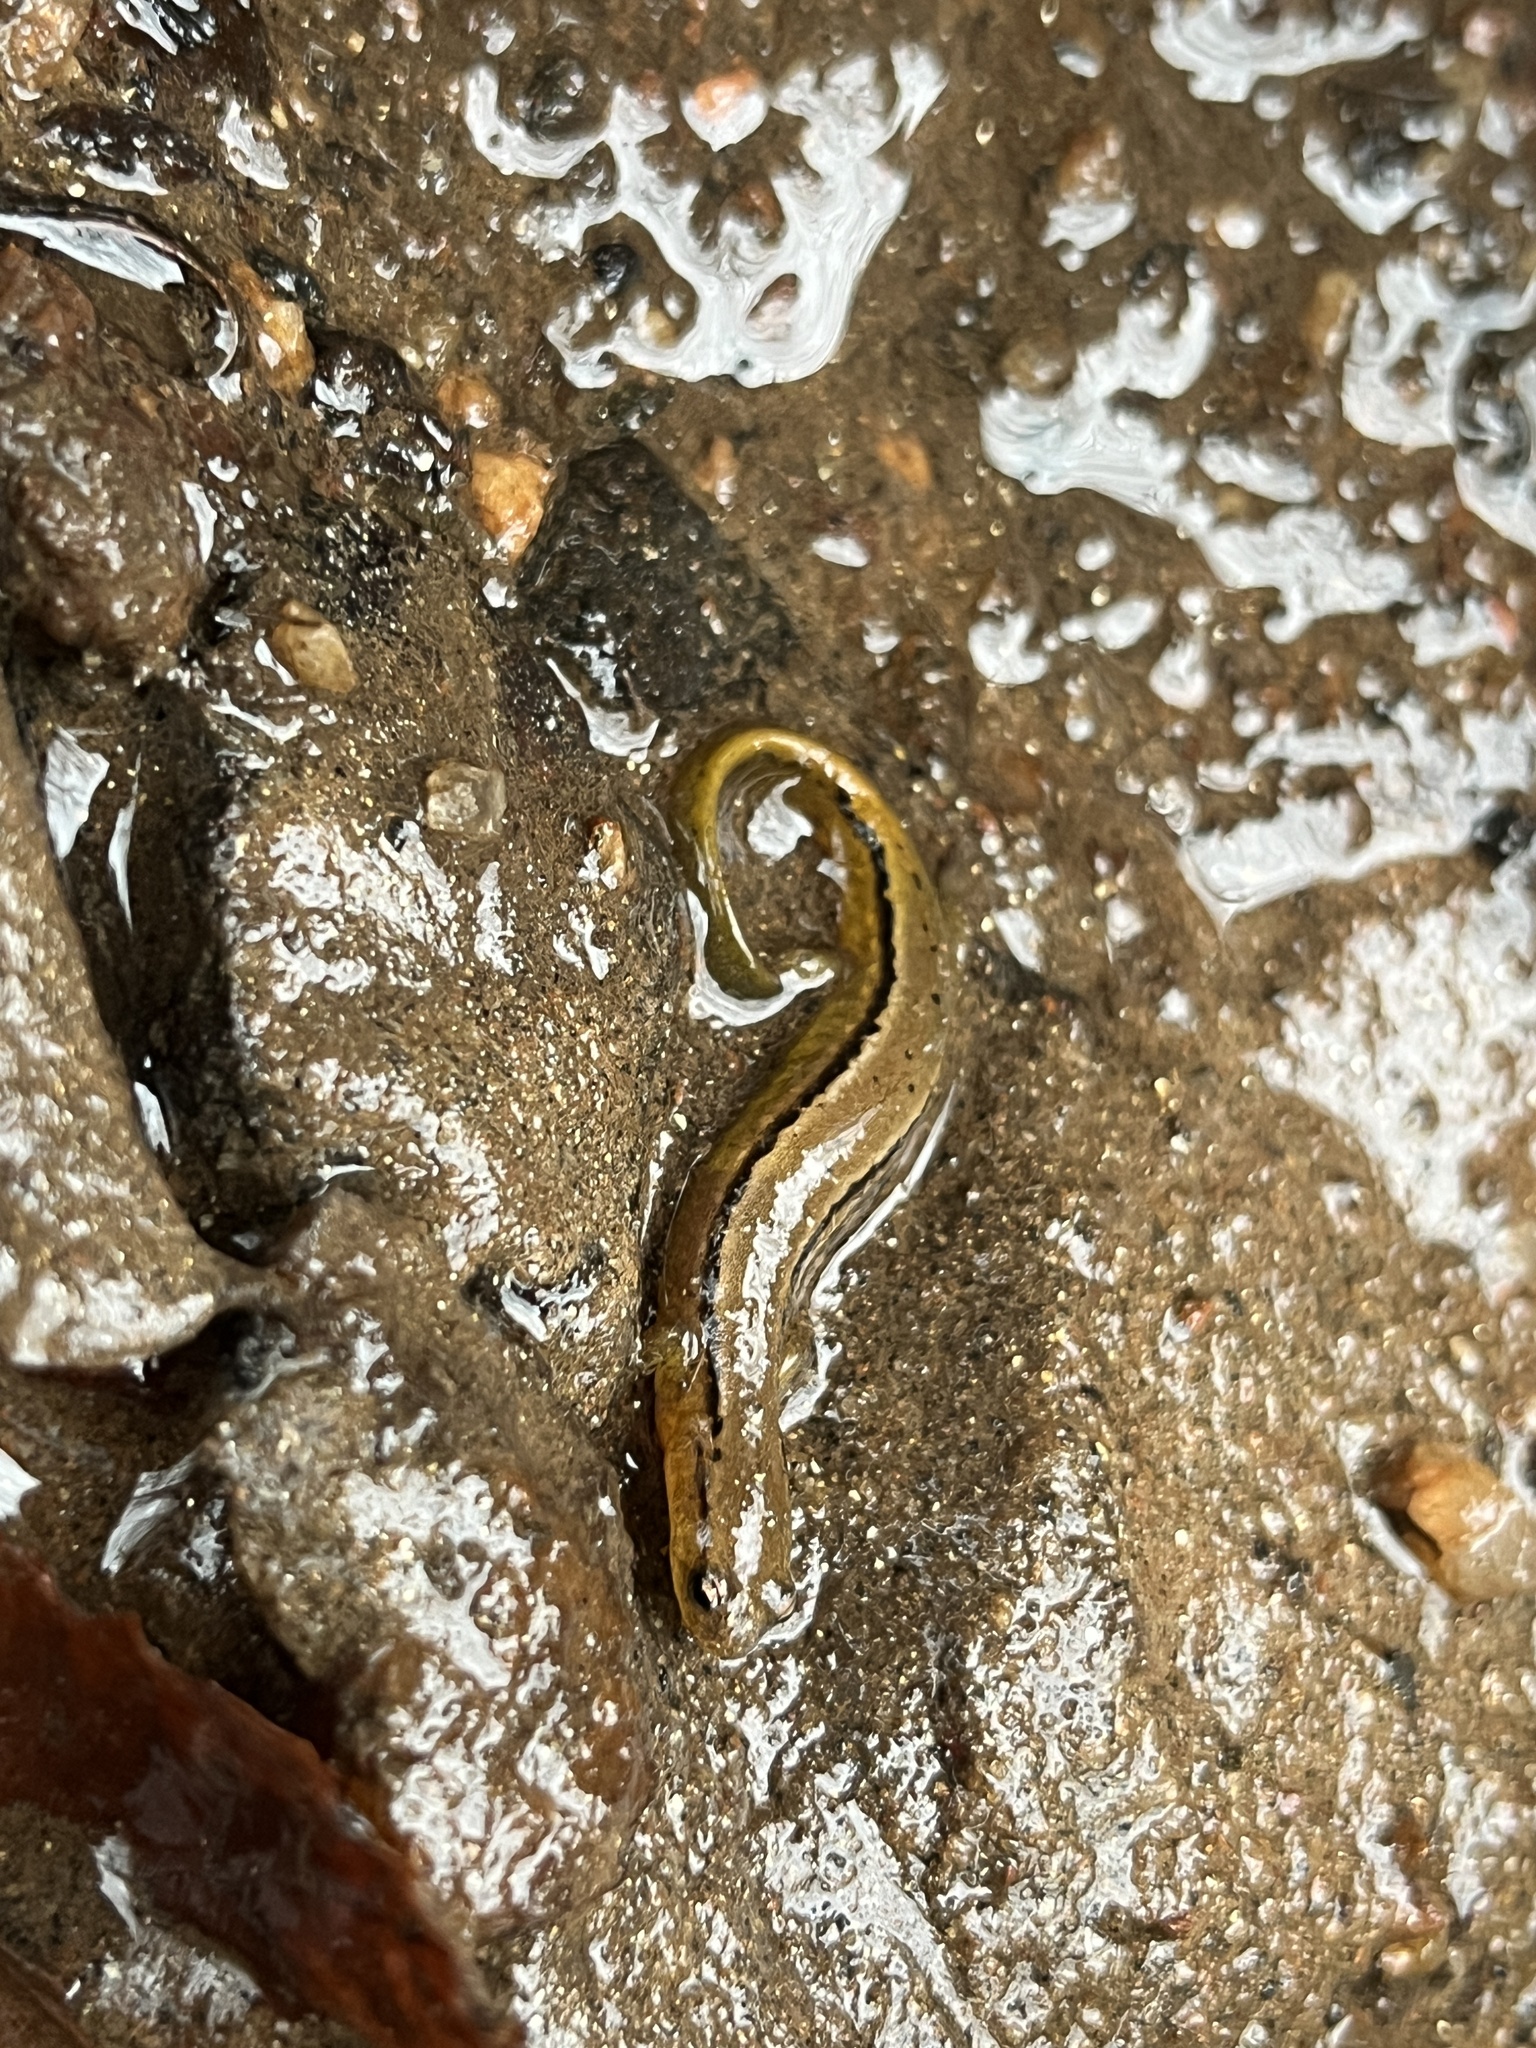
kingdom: Animalia
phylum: Chordata
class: Amphibia
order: Caudata
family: Plethodontidae
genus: Eurycea
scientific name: Eurycea cirrigera
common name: Southern two-lined salamander
